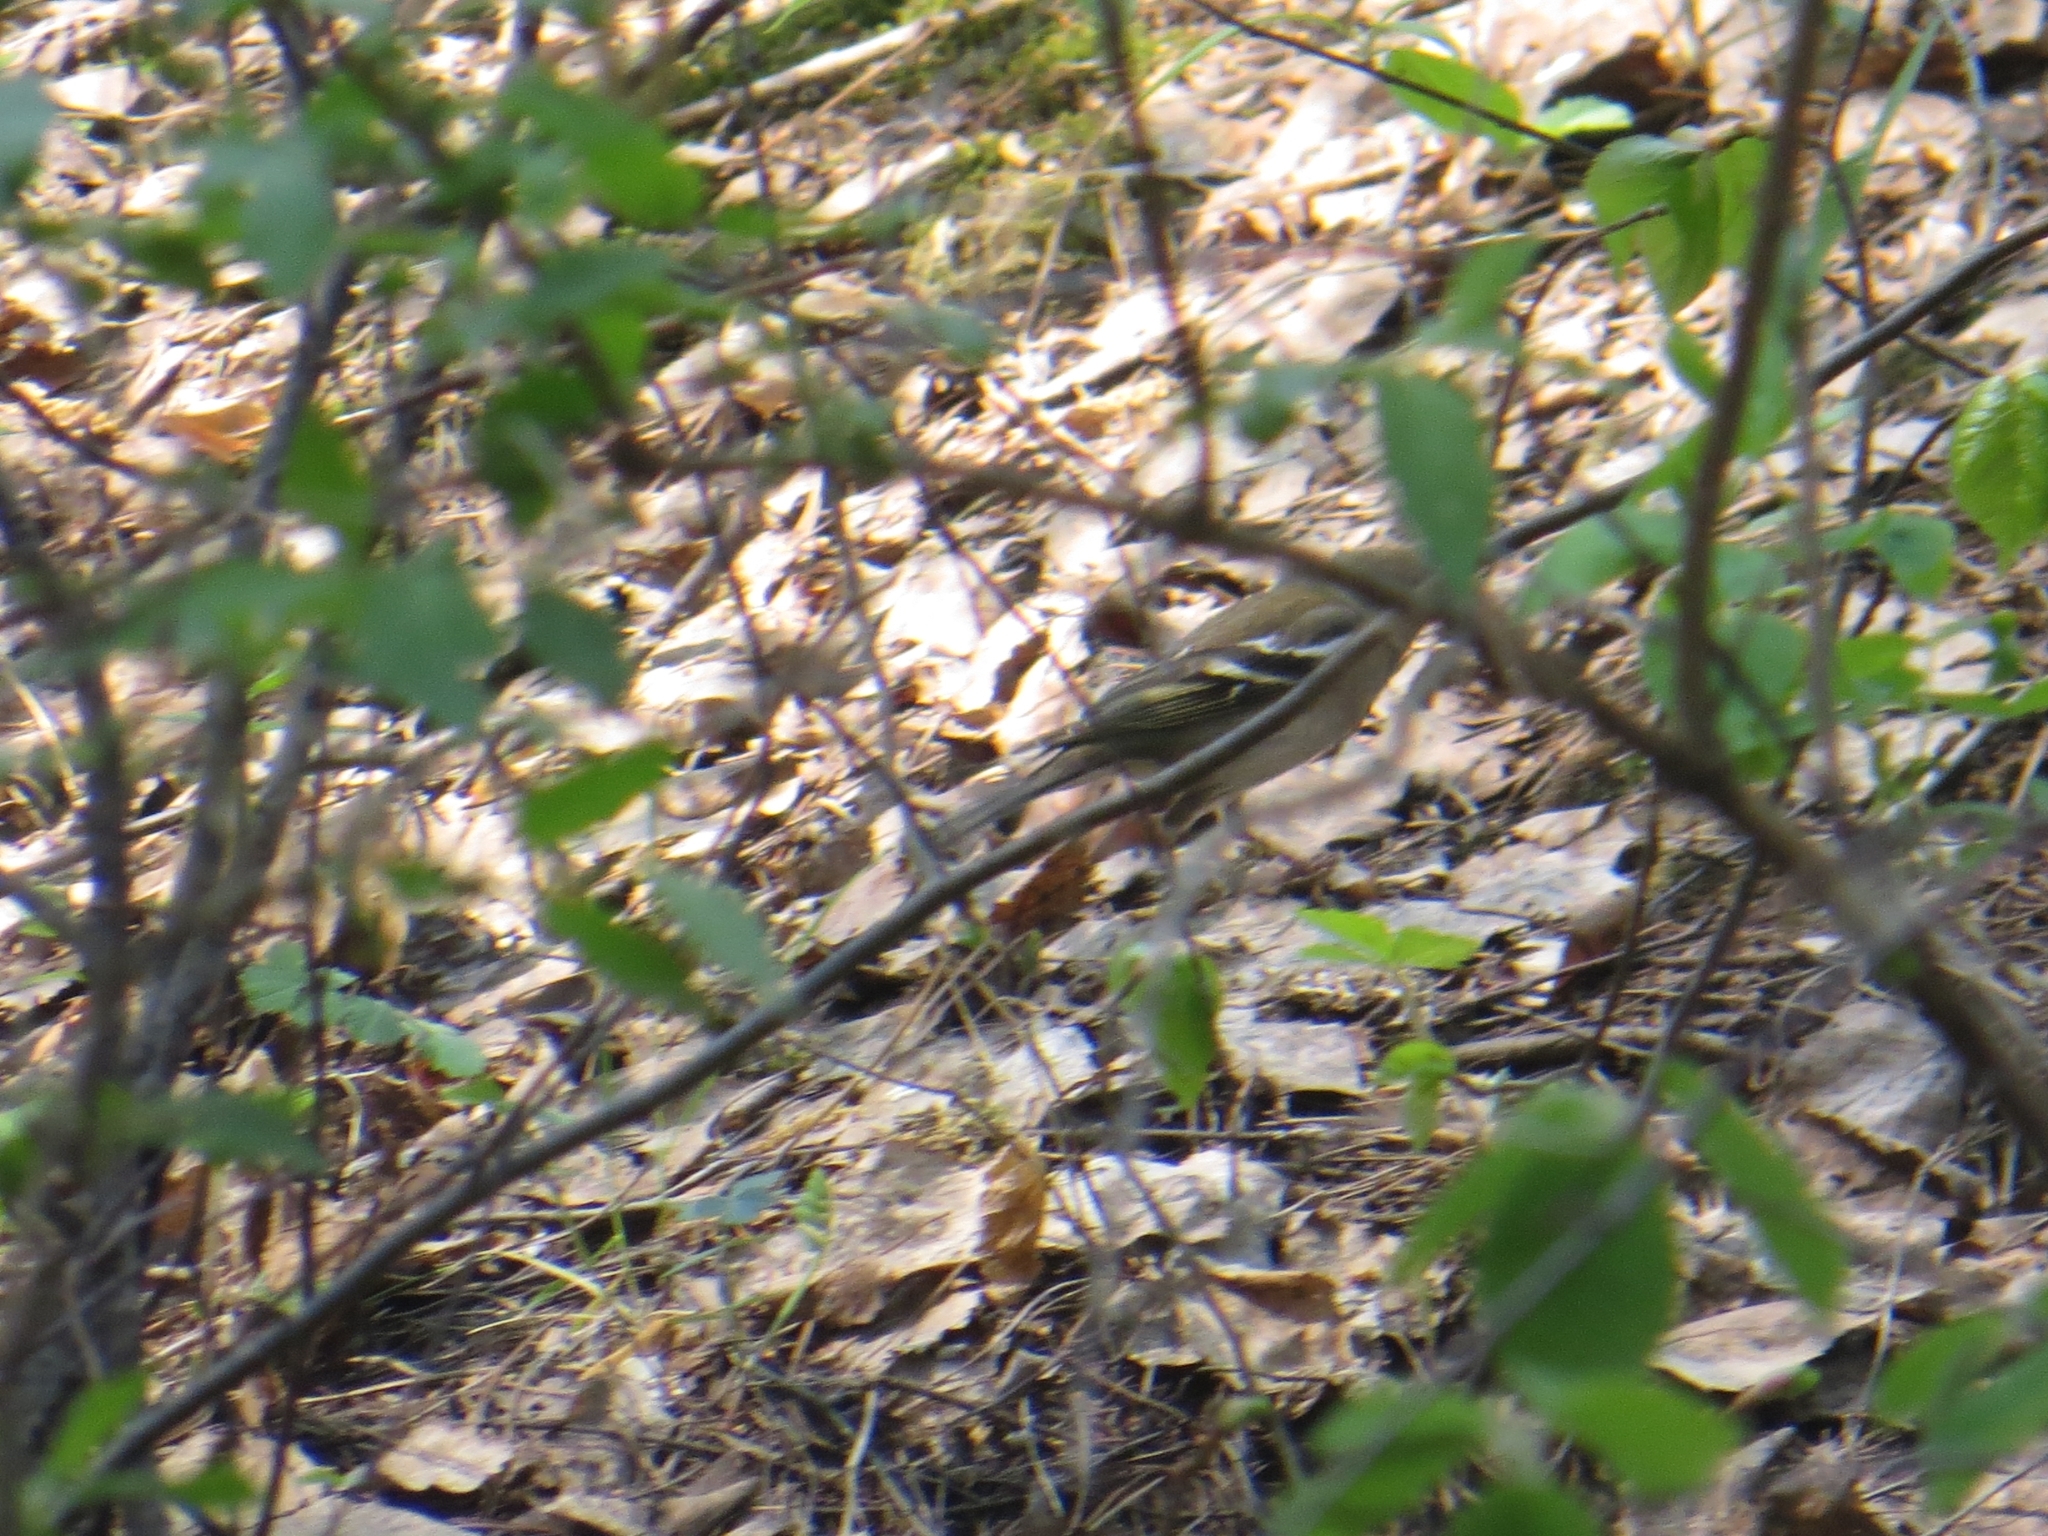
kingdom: Animalia
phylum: Chordata
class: Aves
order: Passeriformes
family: Fringillidae
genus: Fringilla
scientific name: Fringilla coelebs
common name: Common chaffinch
